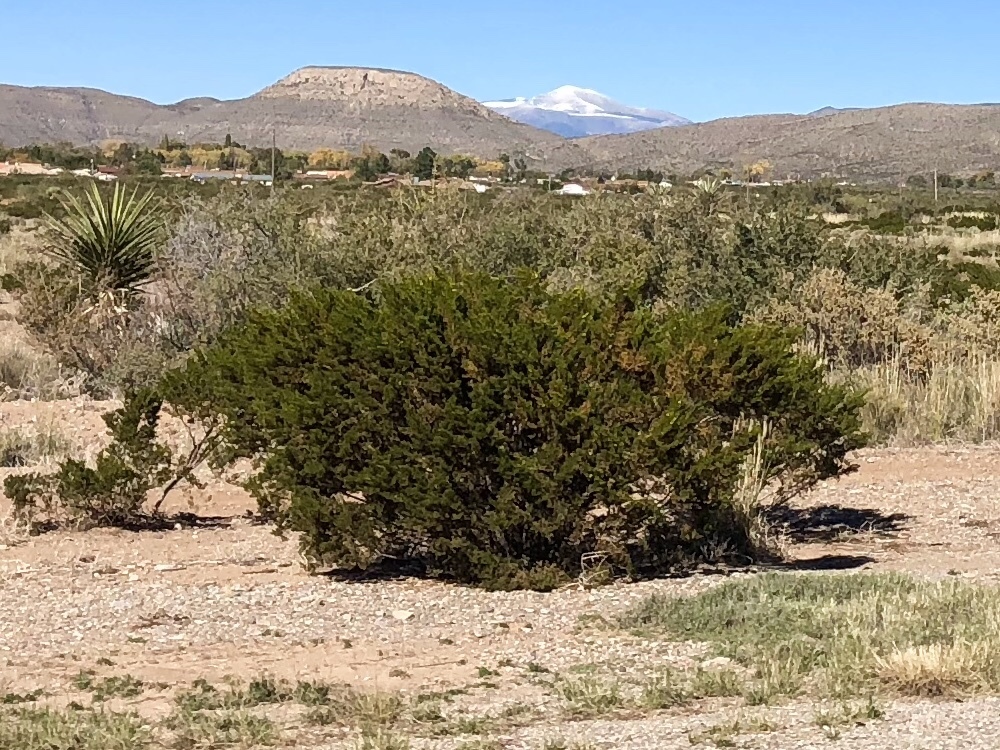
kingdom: Plantae
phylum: Tracheophyta
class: Magnoliopsida
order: Zygophyllales
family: Zygophyllaceae
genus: Larrea
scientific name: Larrea tridentata
